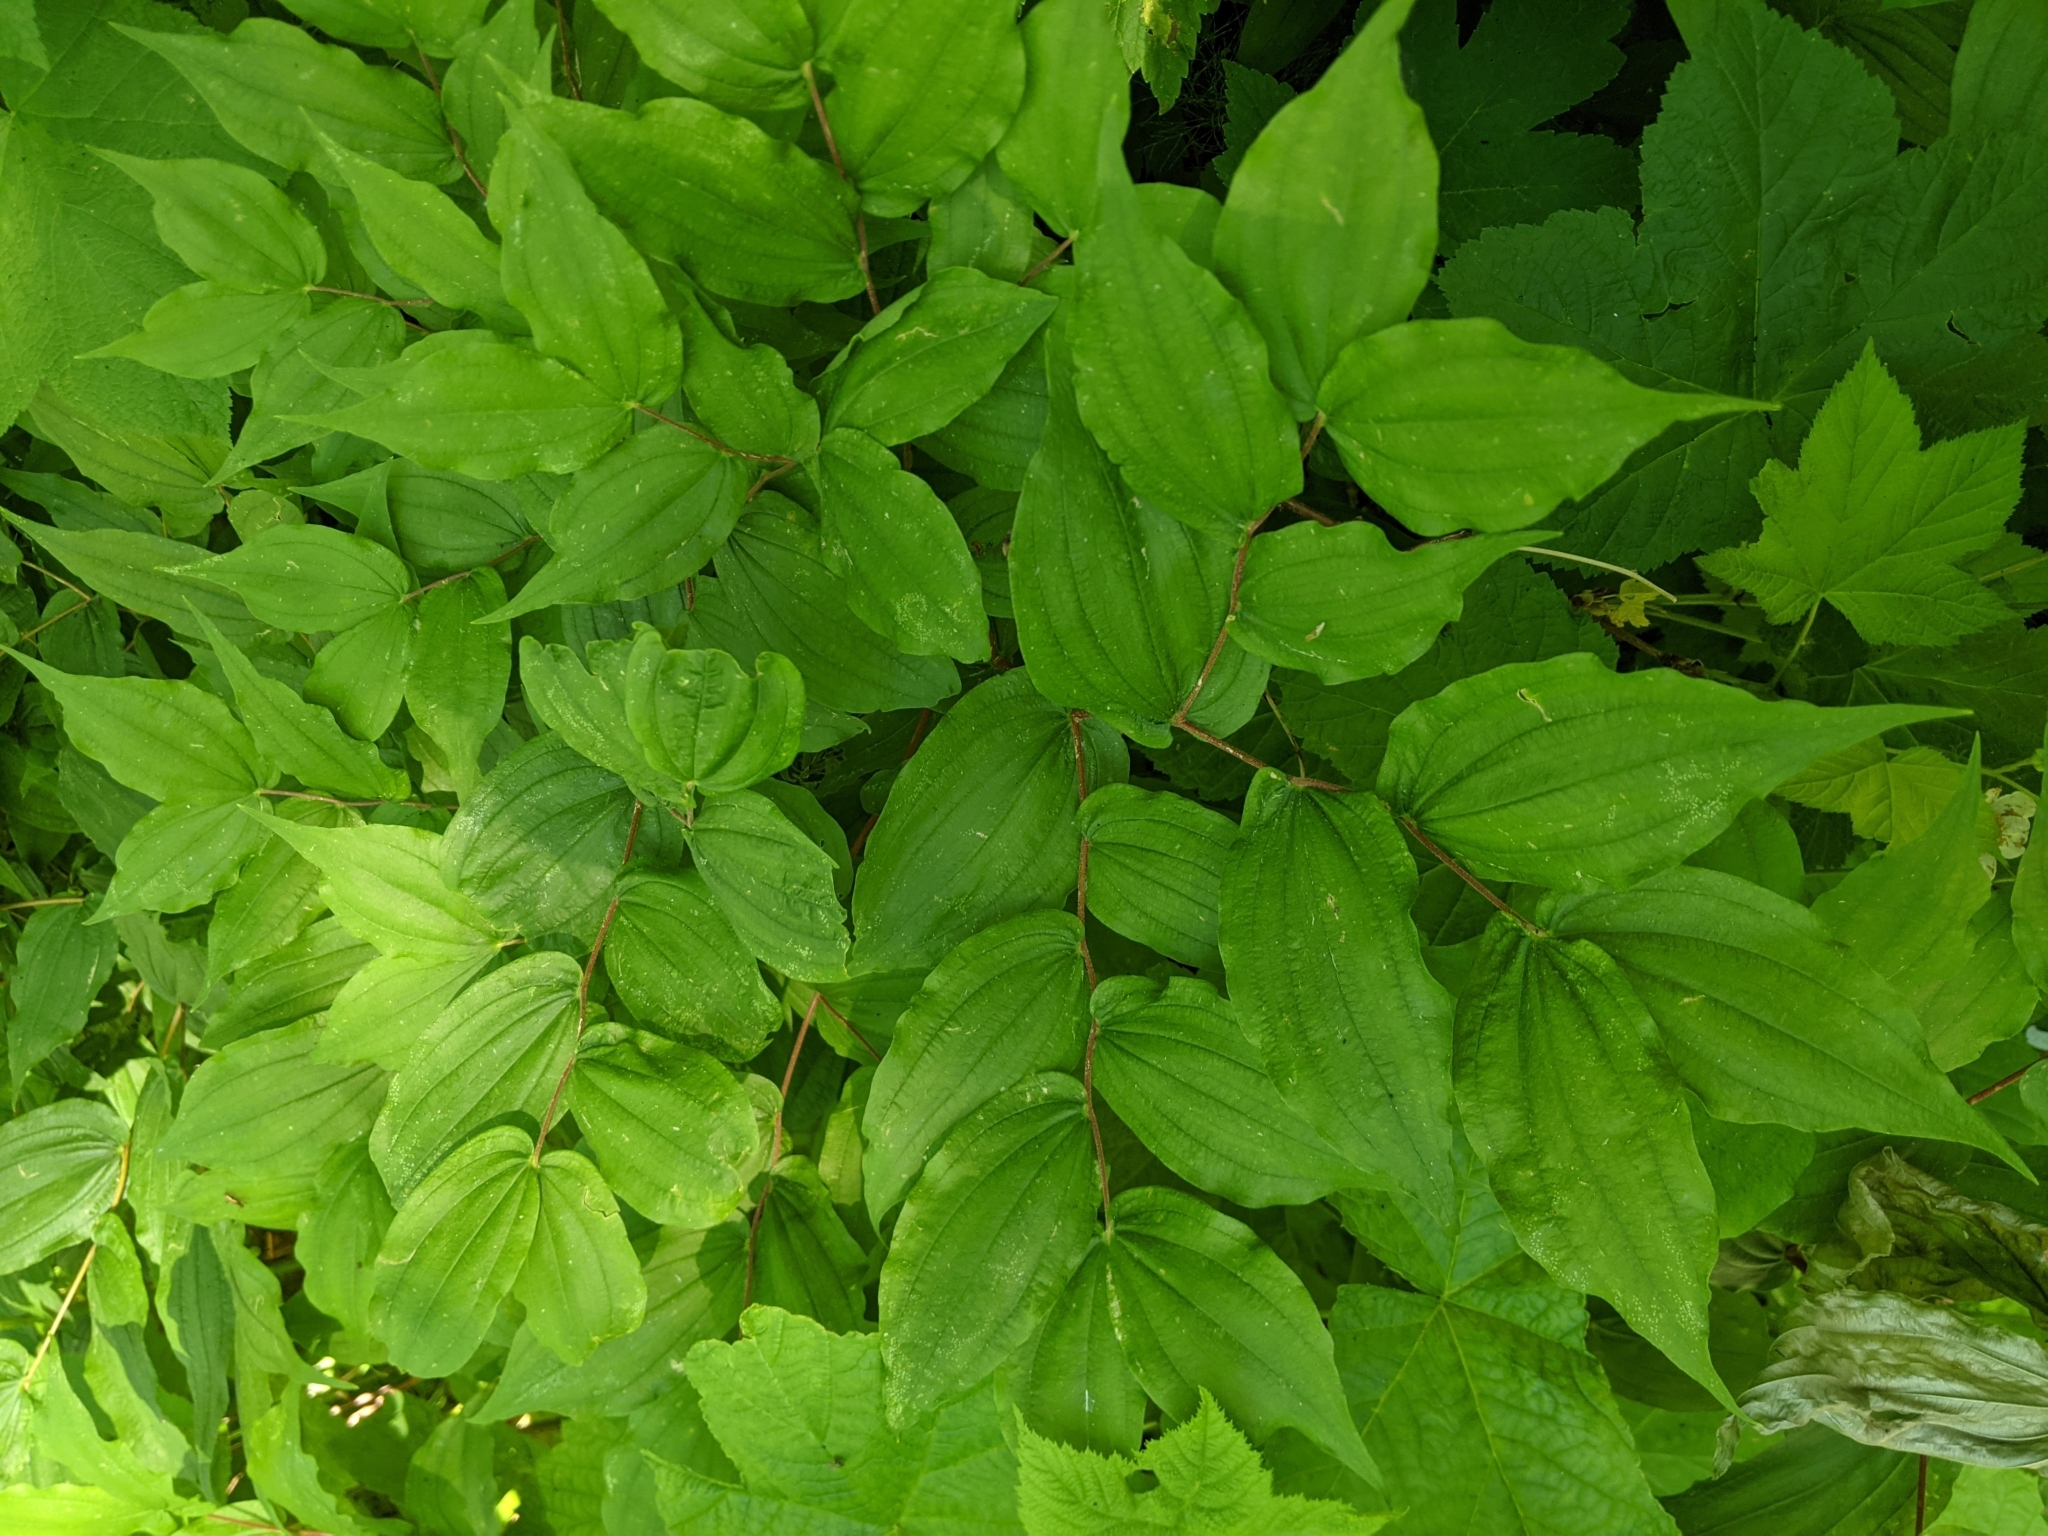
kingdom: Plantae
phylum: Tracheophyta
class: Liliopsida
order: Liliales
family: Liliaceae
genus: Prosartes
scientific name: Prosartes hookeri
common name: Fairy-bells
